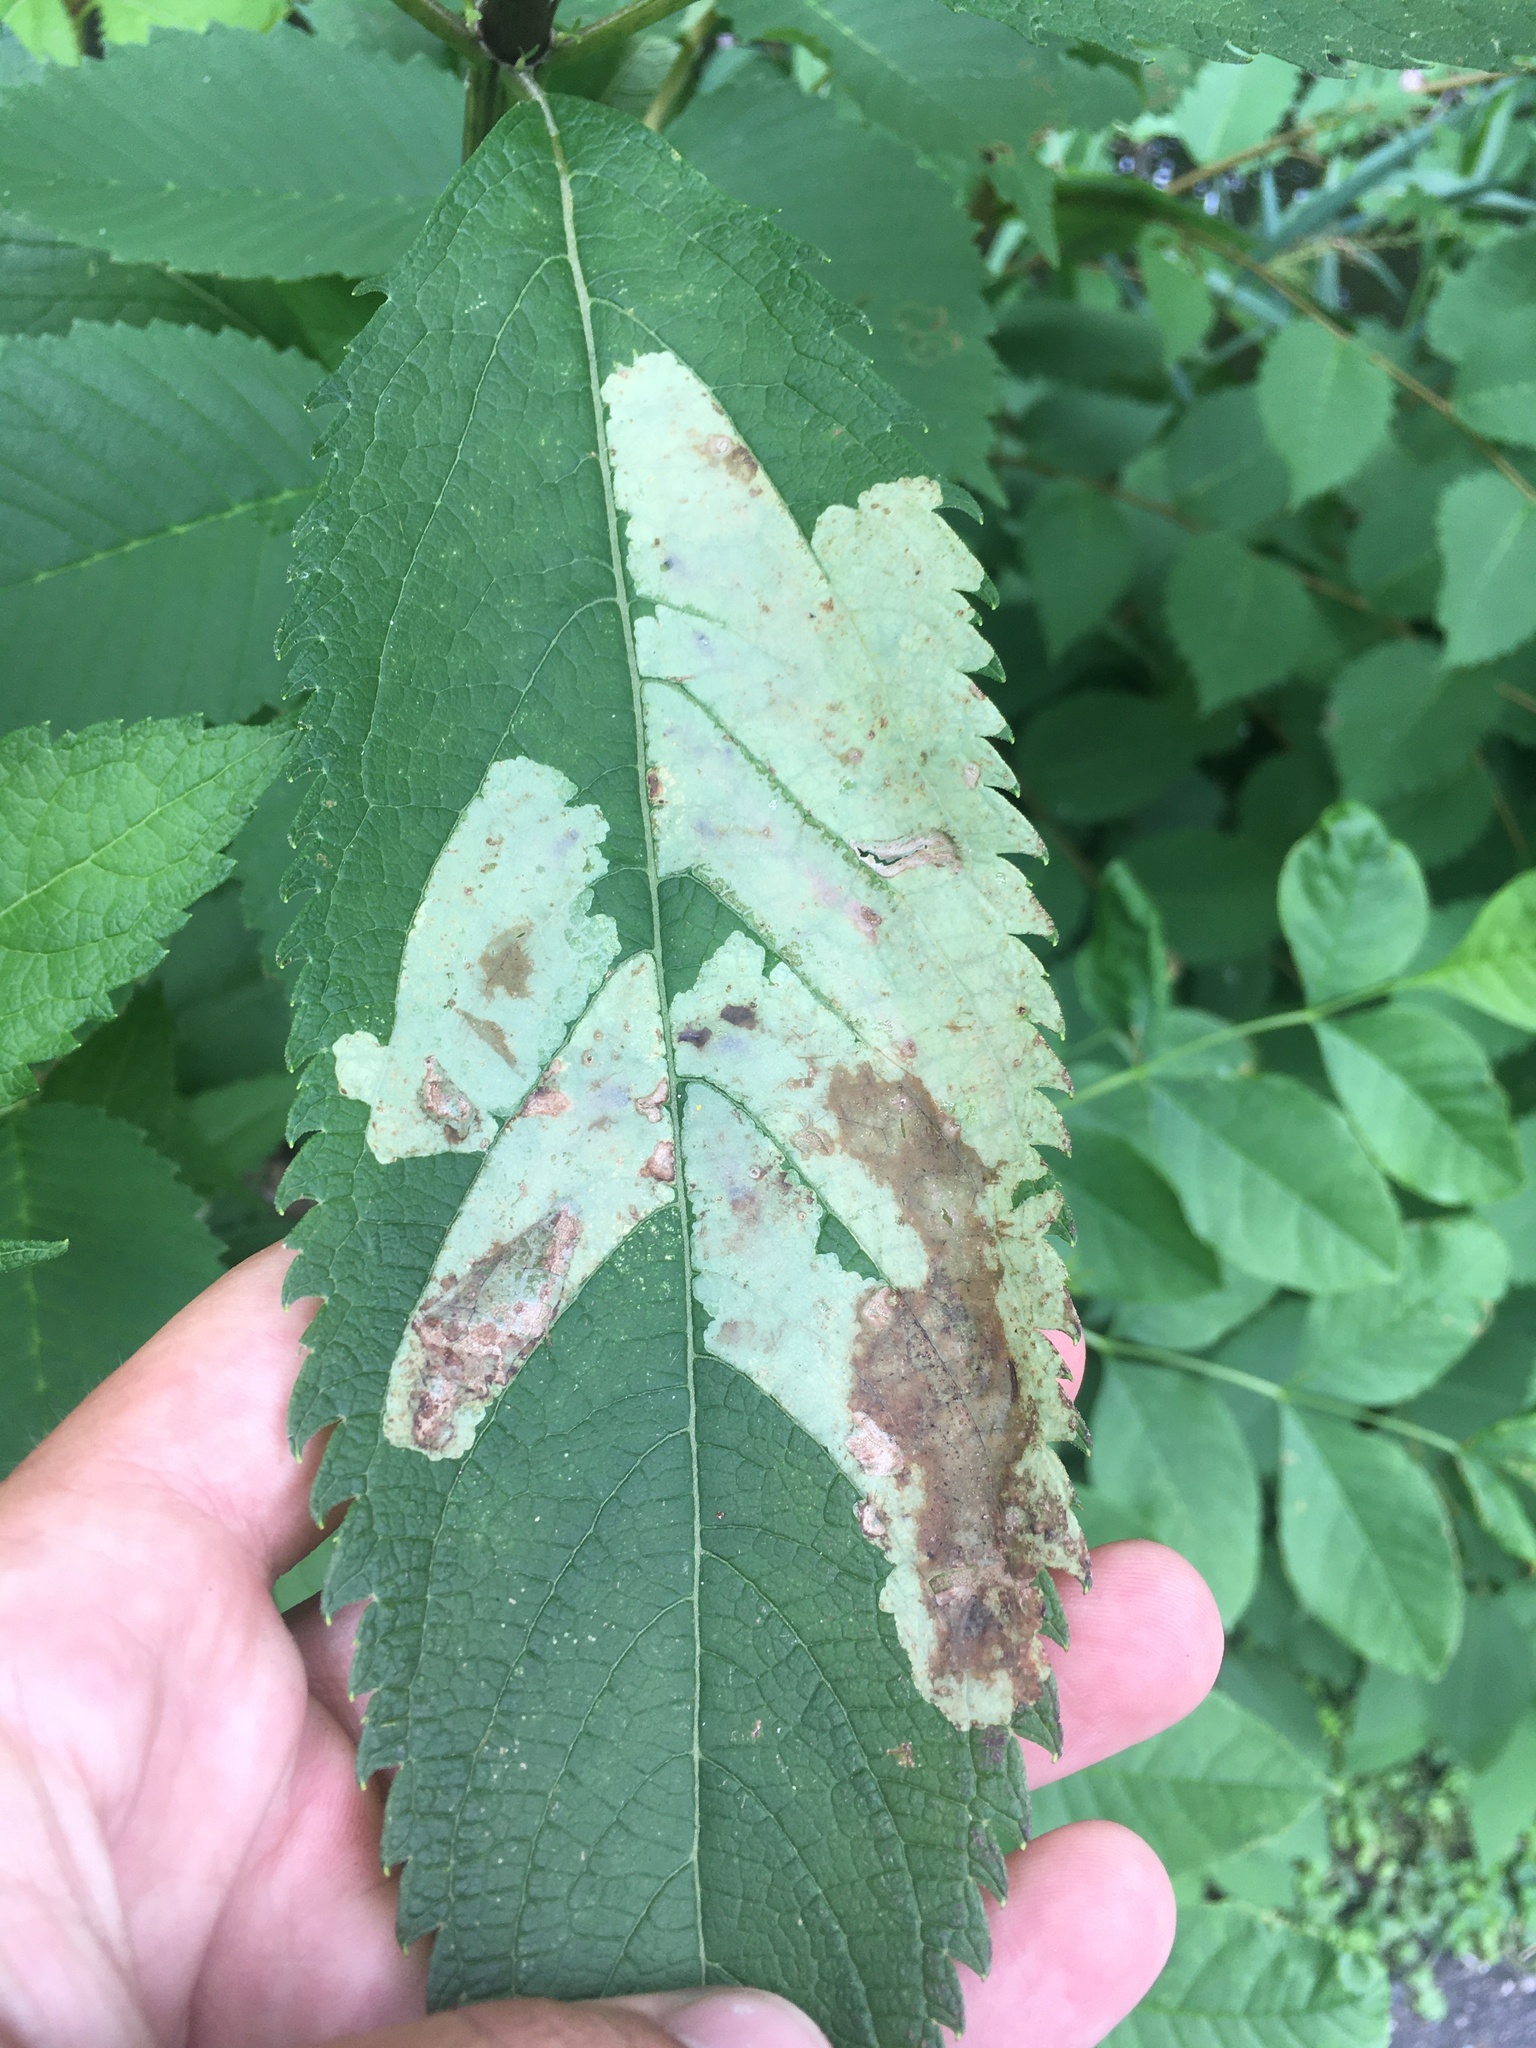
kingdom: Animalia
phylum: Arthropoda
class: Insecta
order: Diptera
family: Agromyzidae
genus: Calycomyza
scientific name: Calycomyza flavinotum
